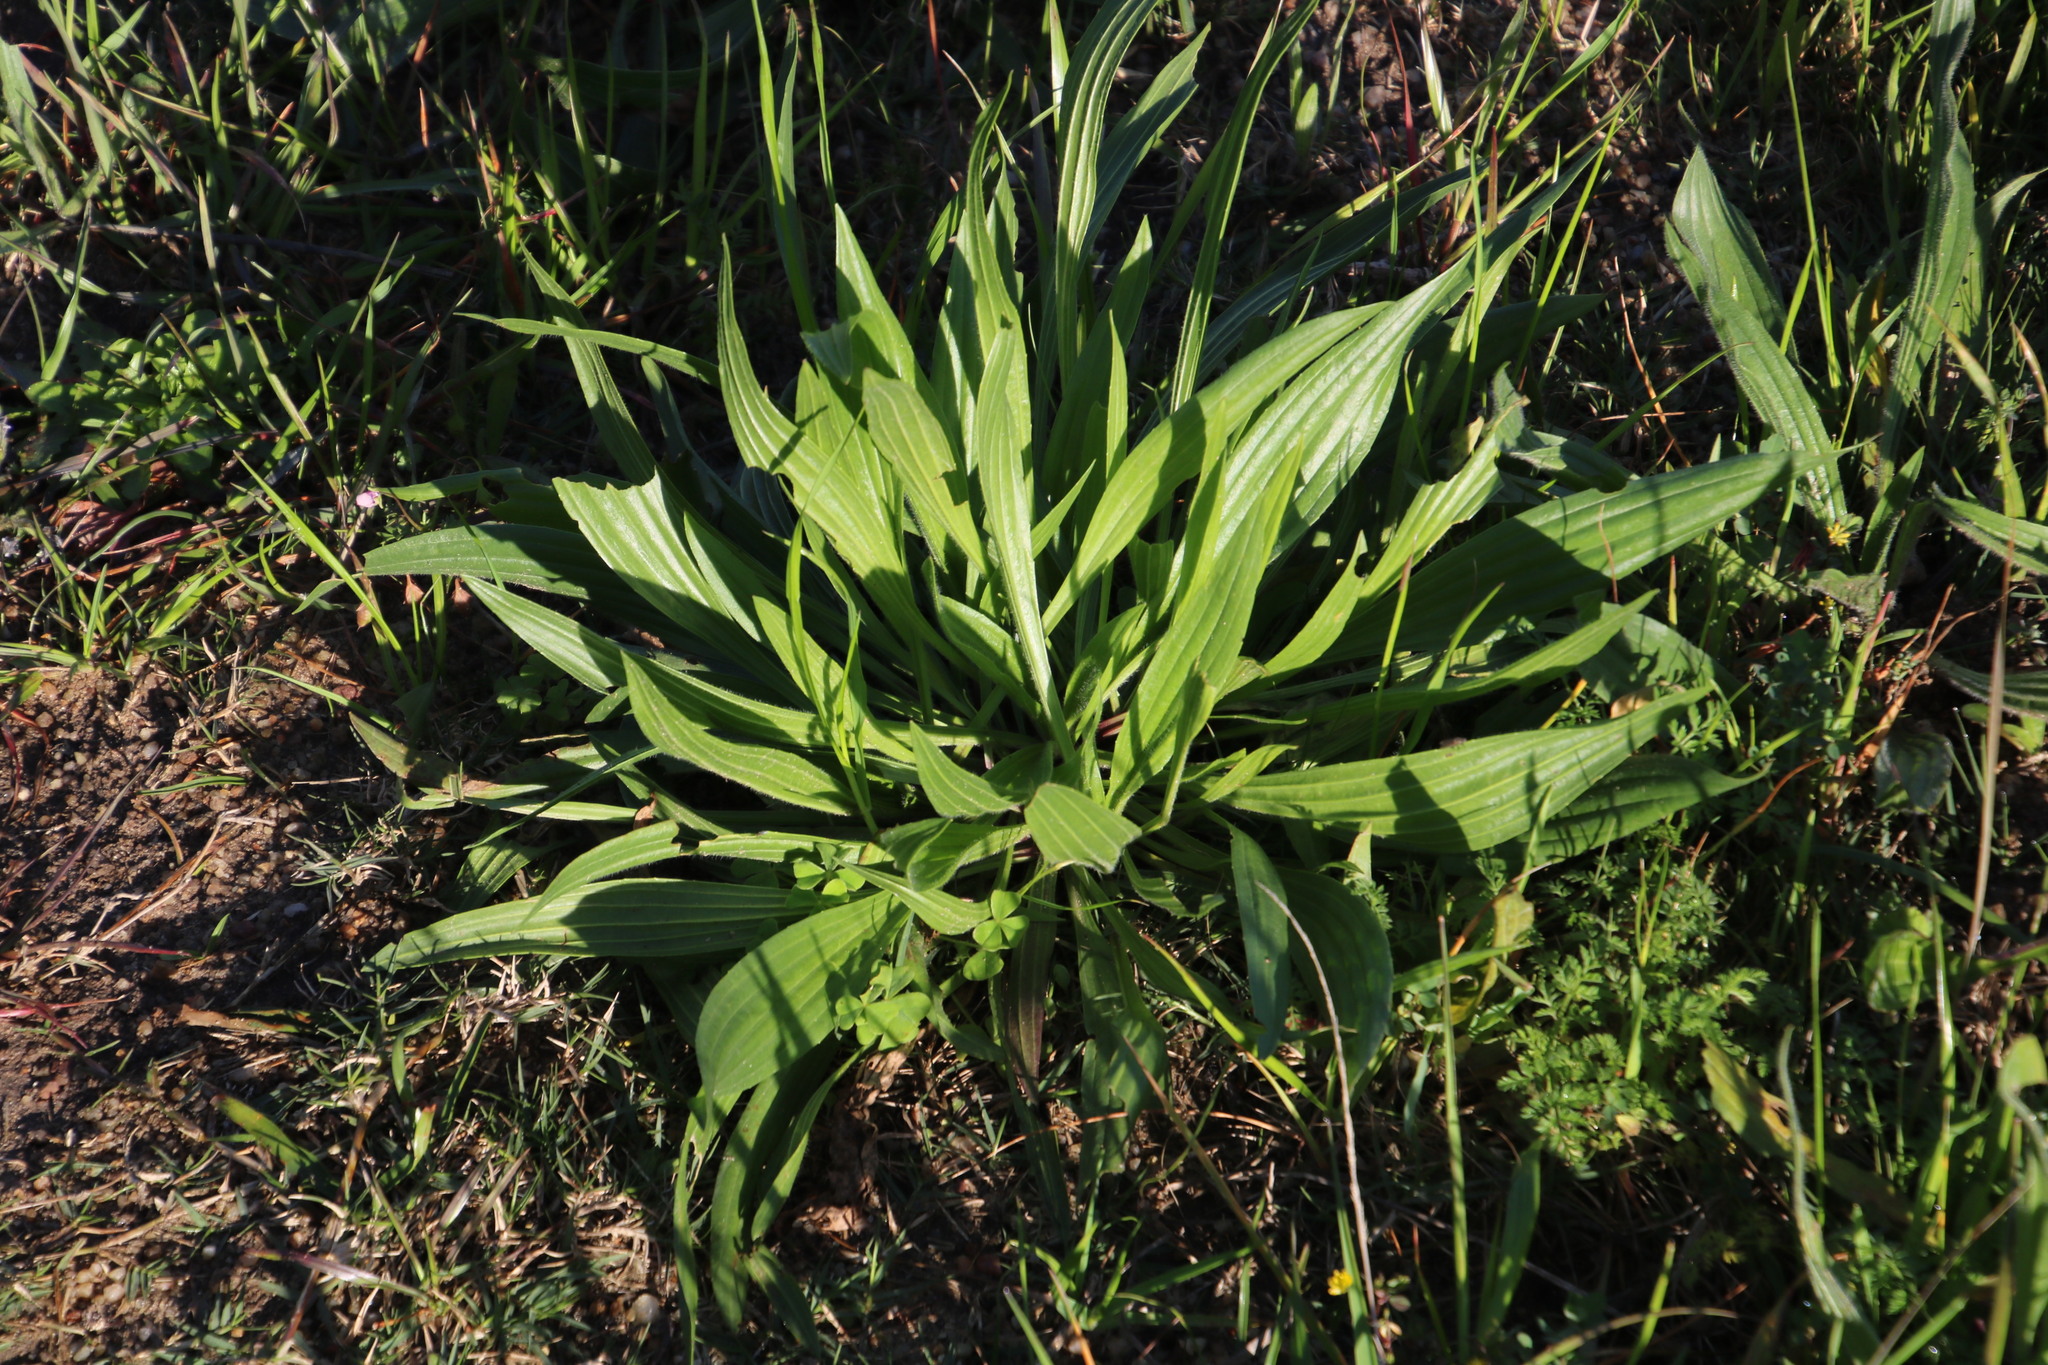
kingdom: Plantae
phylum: Tracheophyta
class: Magnoliopsida
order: Lamiales
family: Plantaginaceae
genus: Plantago
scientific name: Plantago lanceolata
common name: Ribwort plantain
